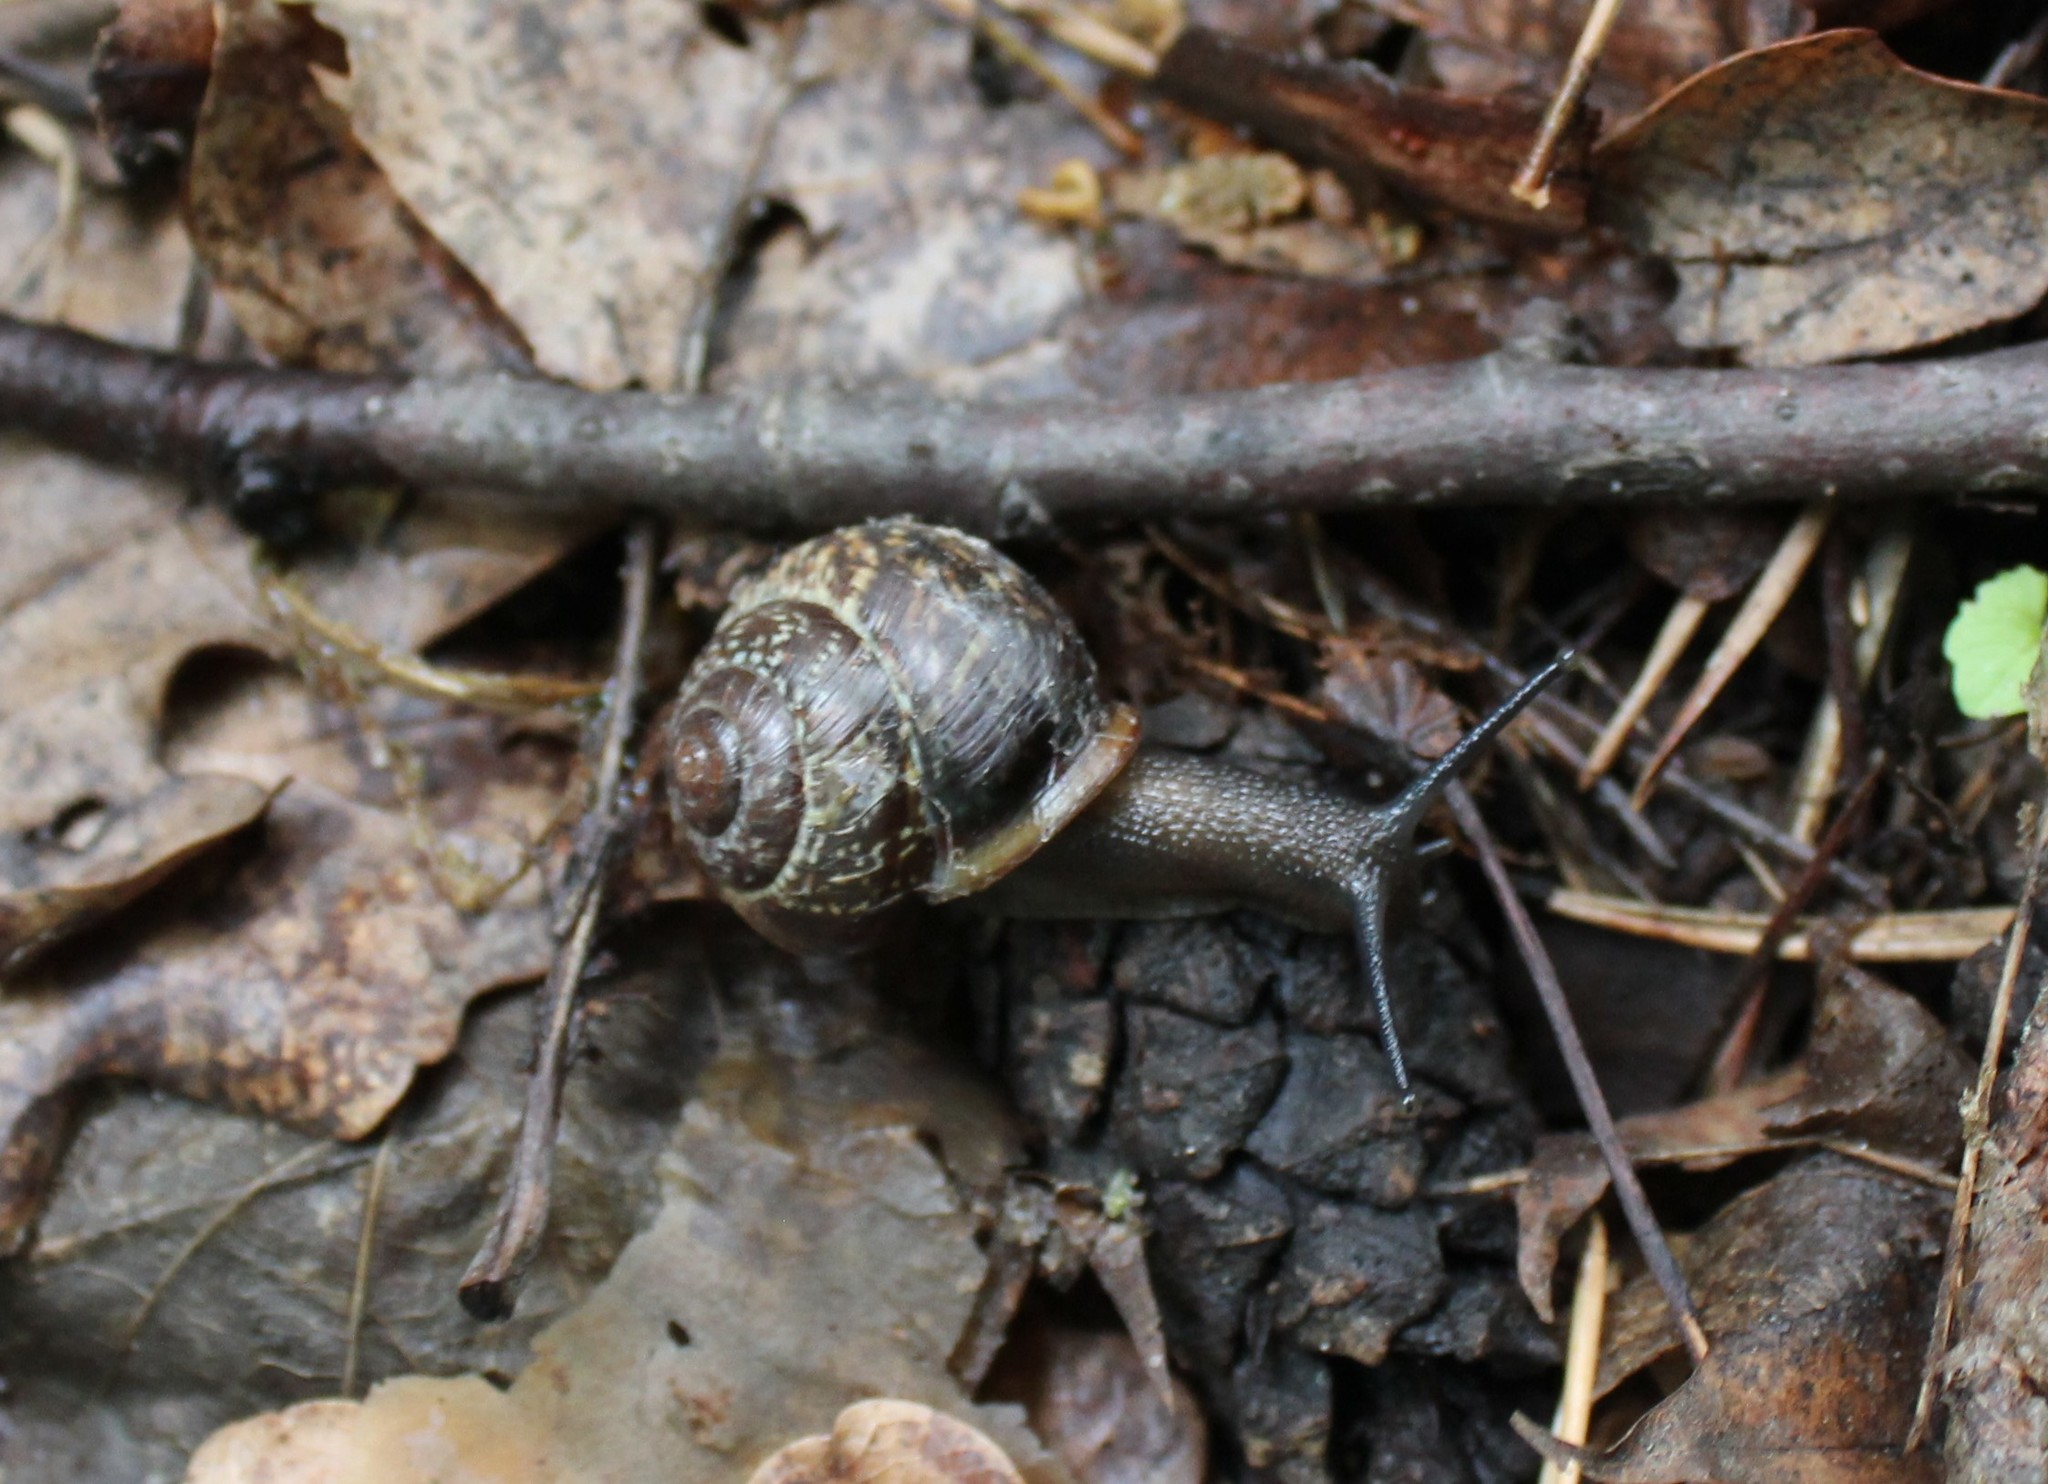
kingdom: Animalia
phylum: Mollusca
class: Gastropoda
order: Stylommatophora
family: Helicidae
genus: Arianta
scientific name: Arianta arbustorum
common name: Copse snail
